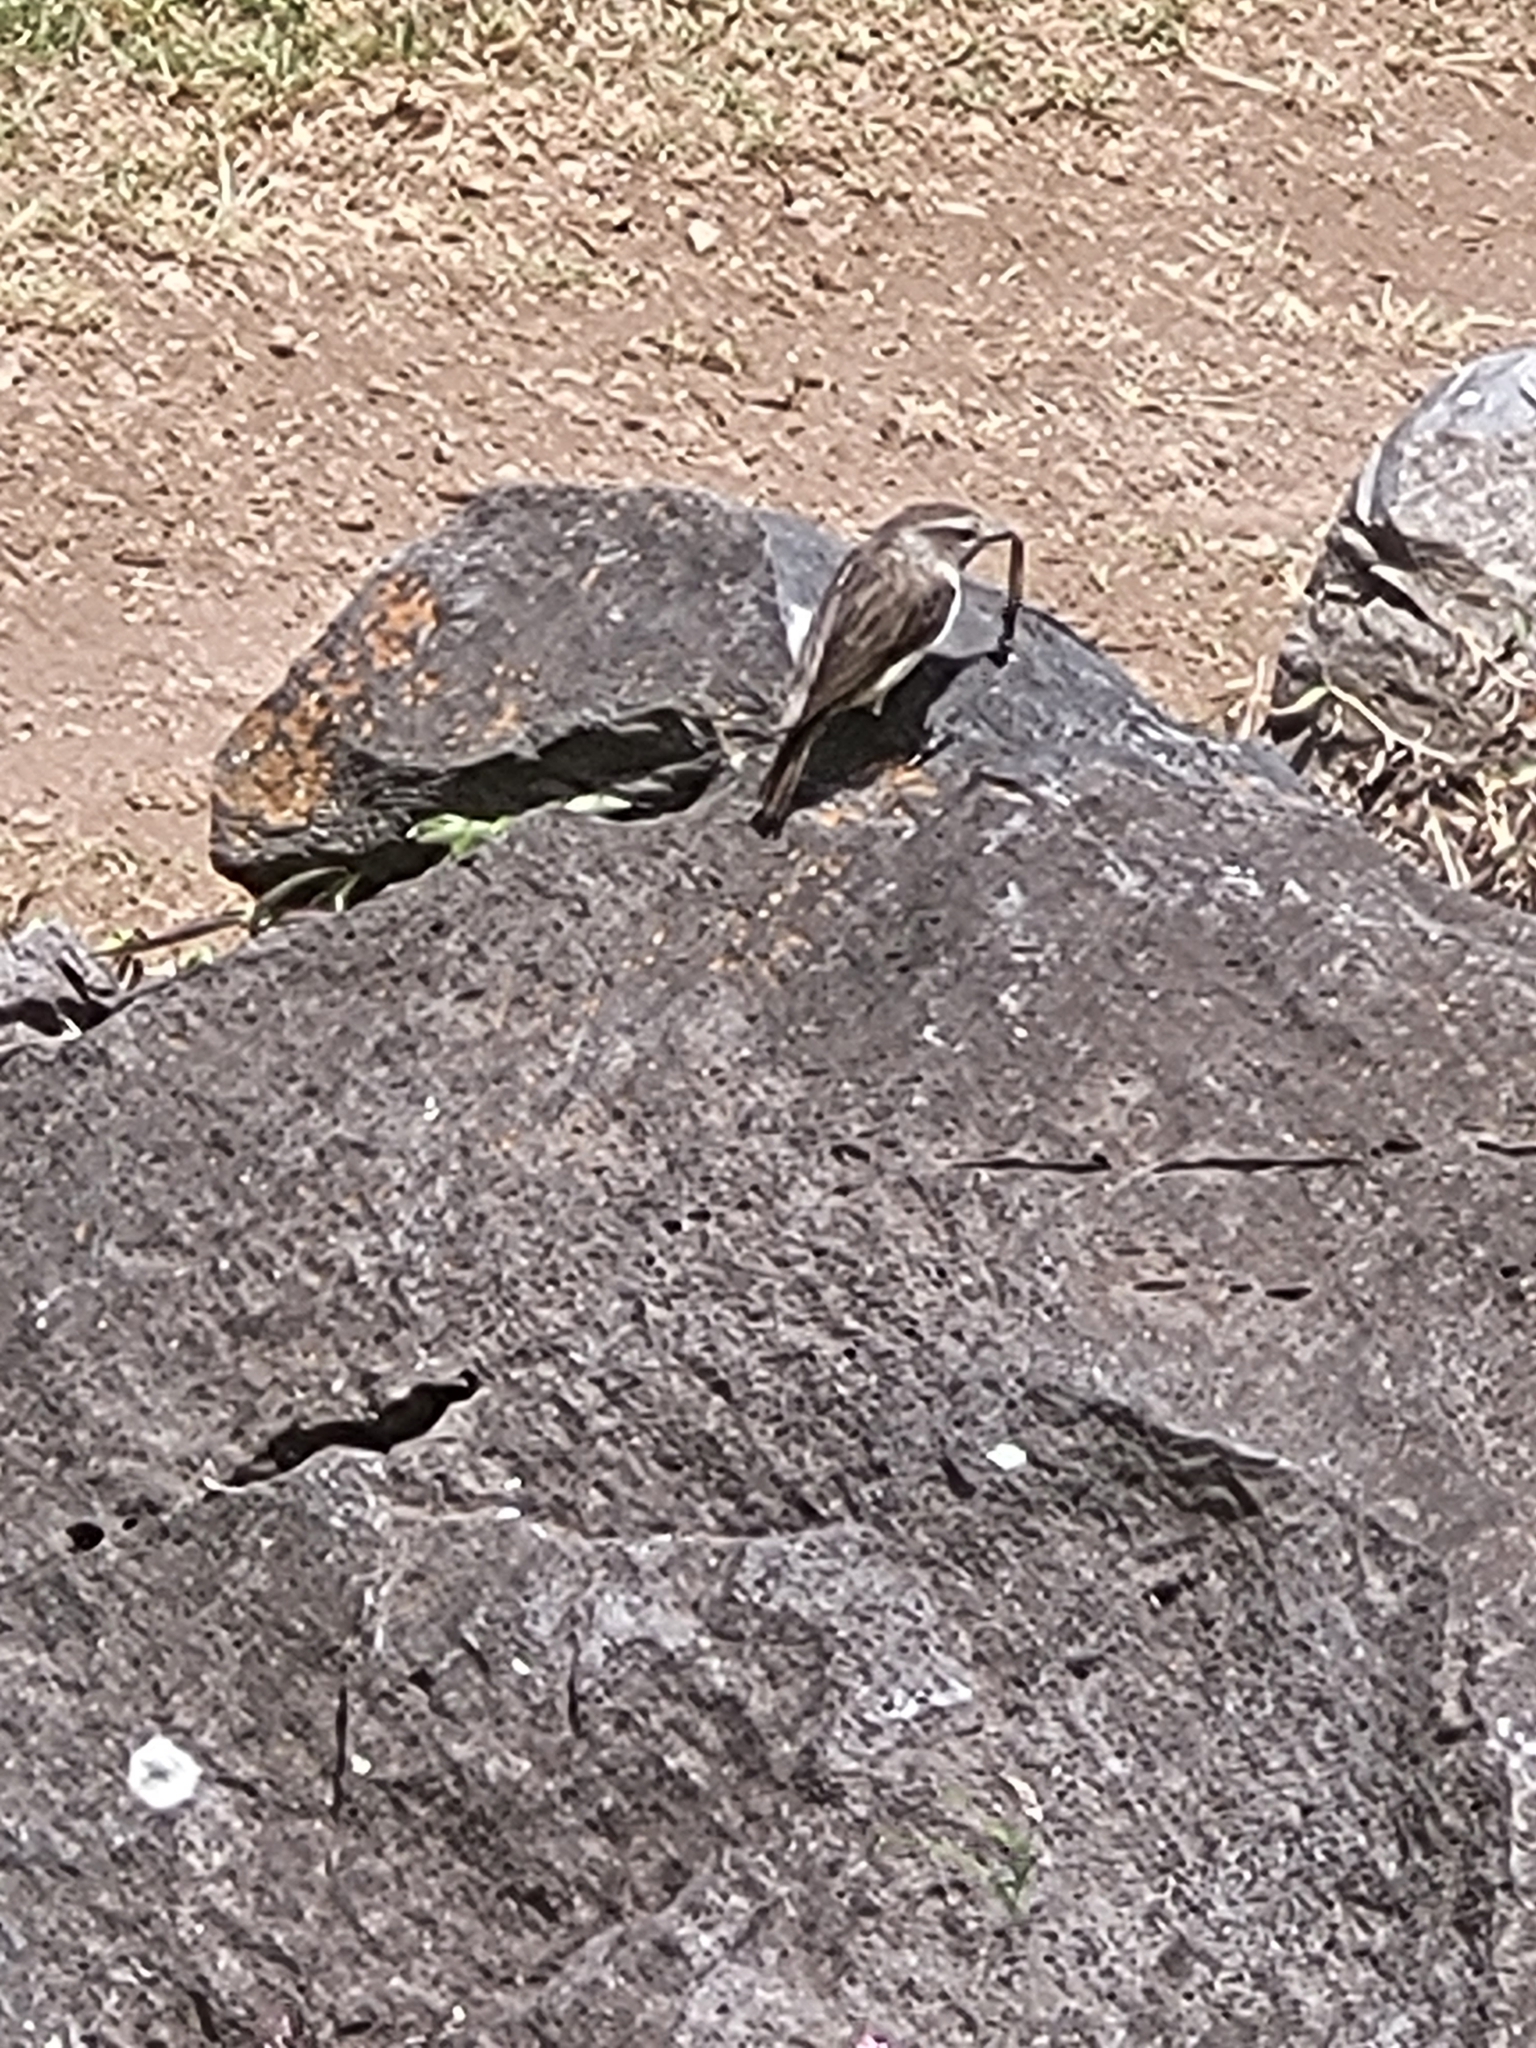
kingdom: Animalia
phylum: Chordata
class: Aves
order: Passeriformes
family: Muscicapidae
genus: Saxicola
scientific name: Saxicola tectes
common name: Reunion stonechat
